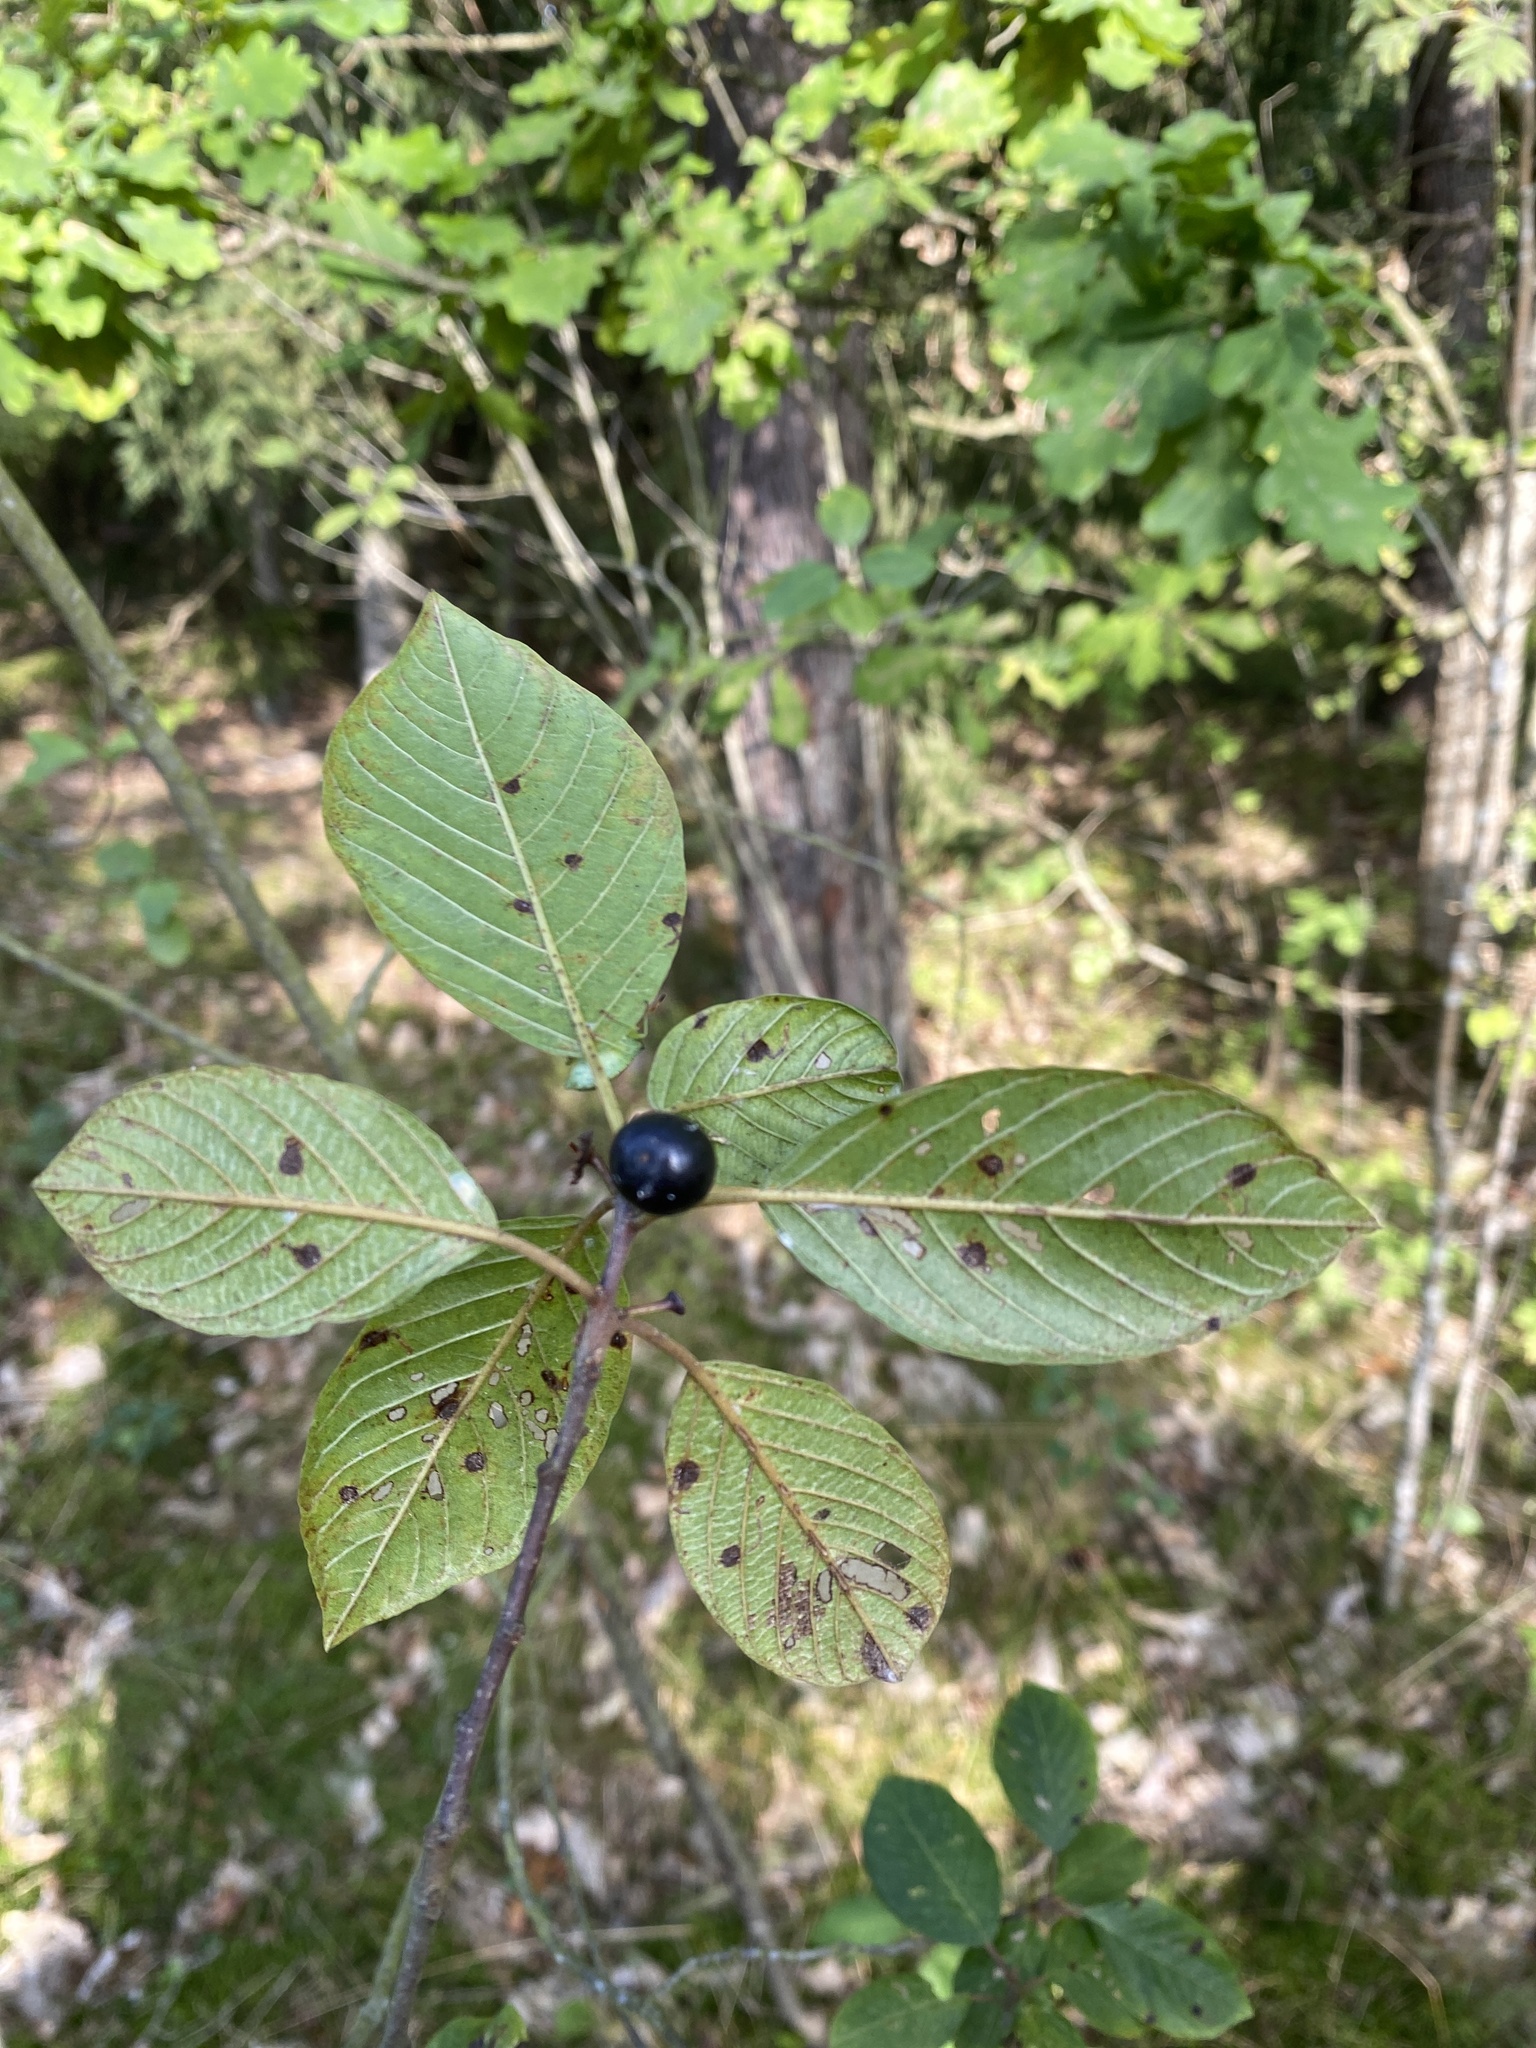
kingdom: Animalia
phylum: Arthropoda
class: Insecta
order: Lepidoptera
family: Bucculatricidae
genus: Bucculatrix
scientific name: Bucculatrix frangutella
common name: Buckthorn bent-wing
